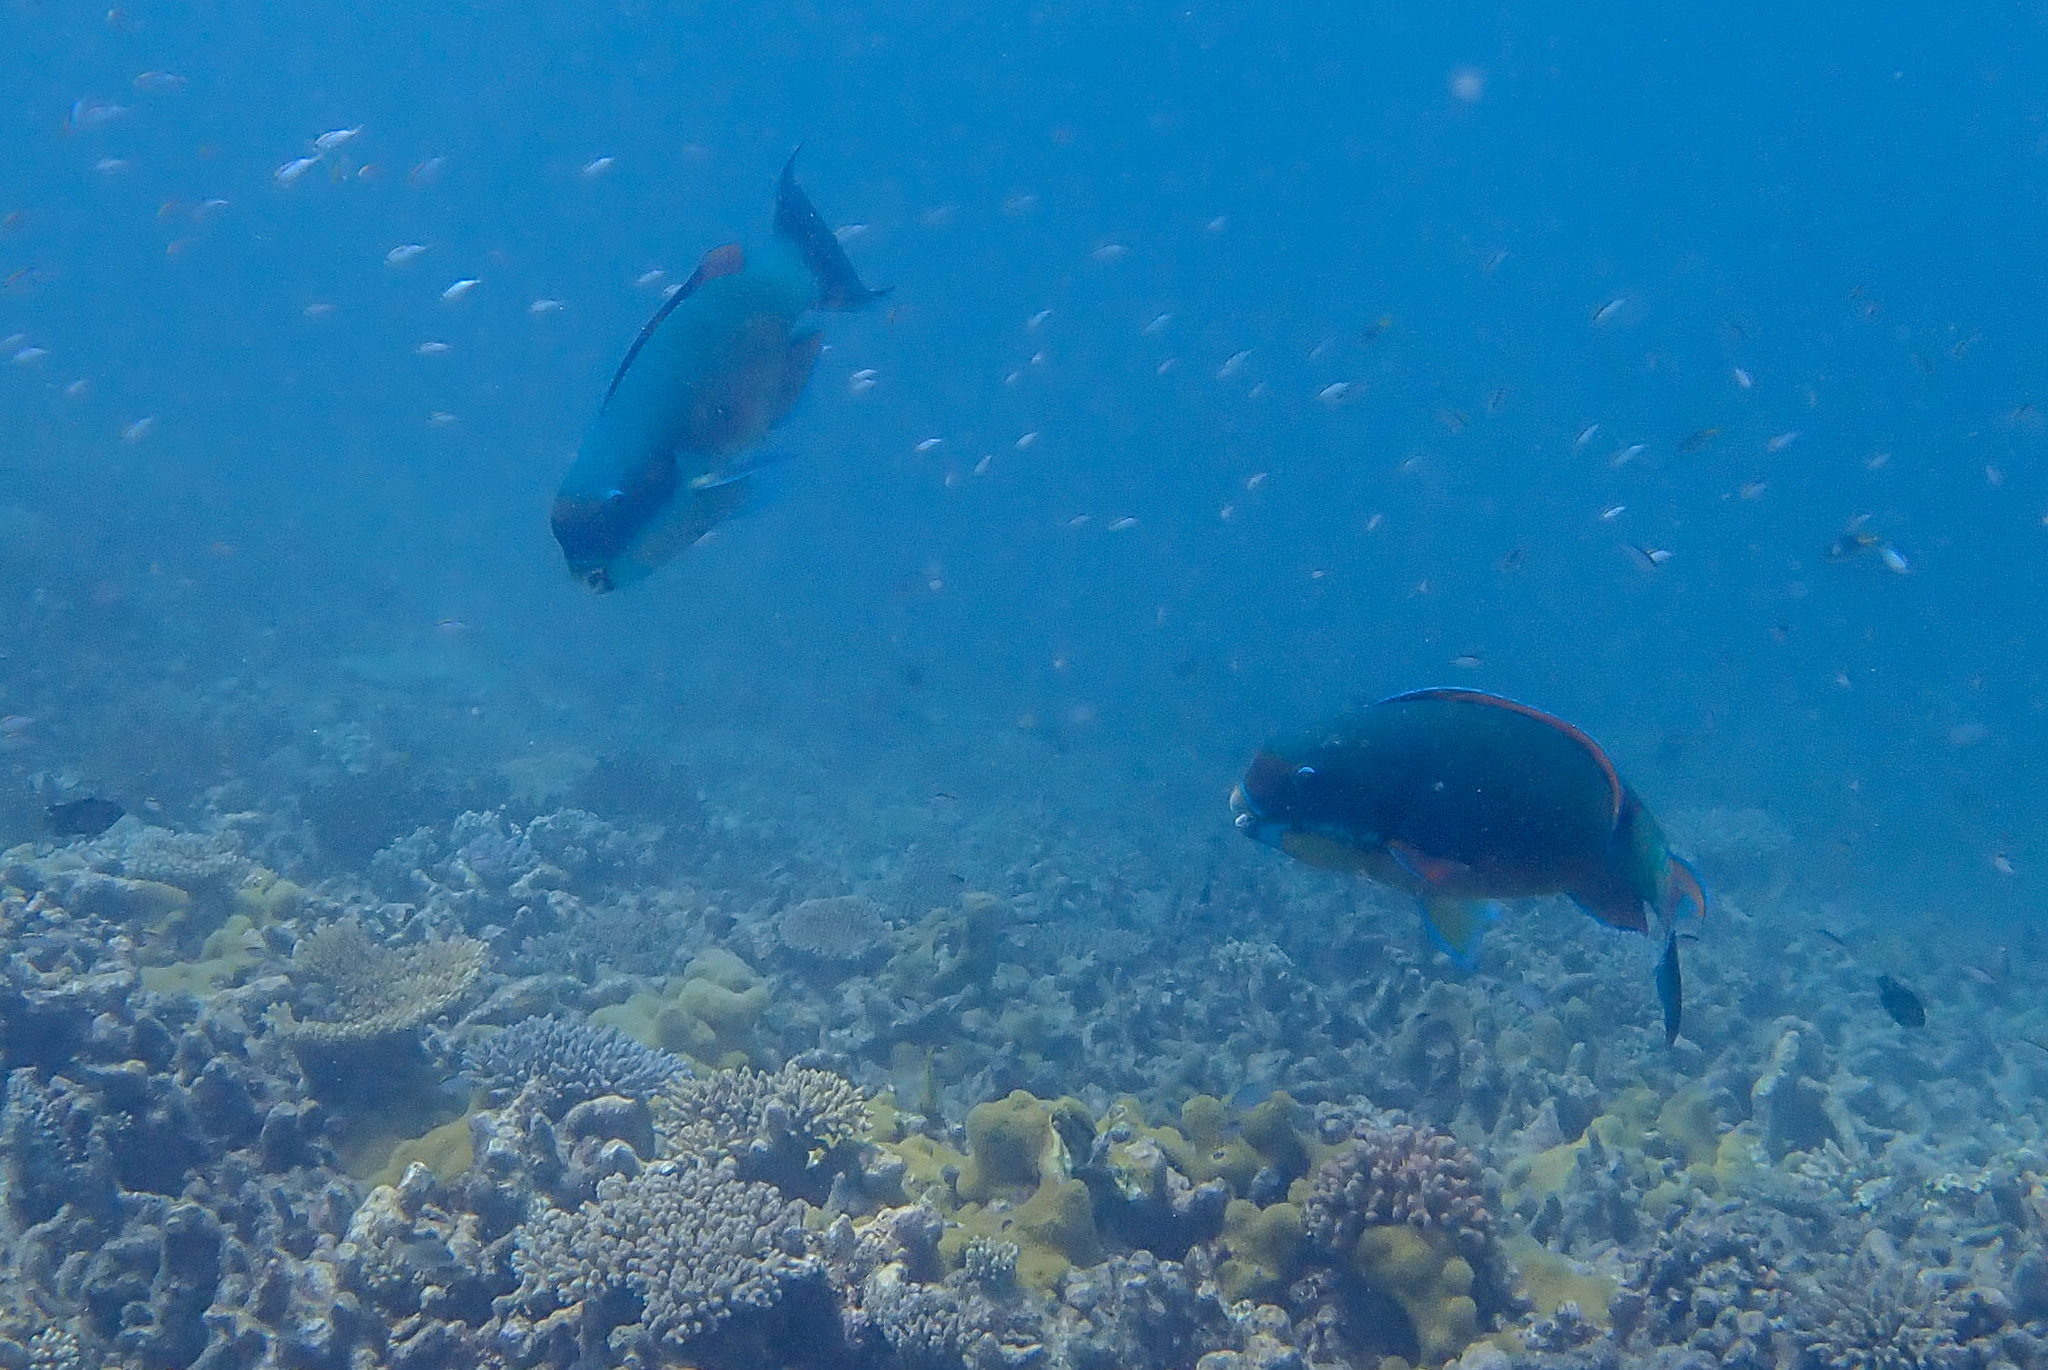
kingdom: Animalia
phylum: Chordata
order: Perciformes
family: Scaridae
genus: Chlorurus
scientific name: Chlorurus microrhinos
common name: Steephead parrotfish
